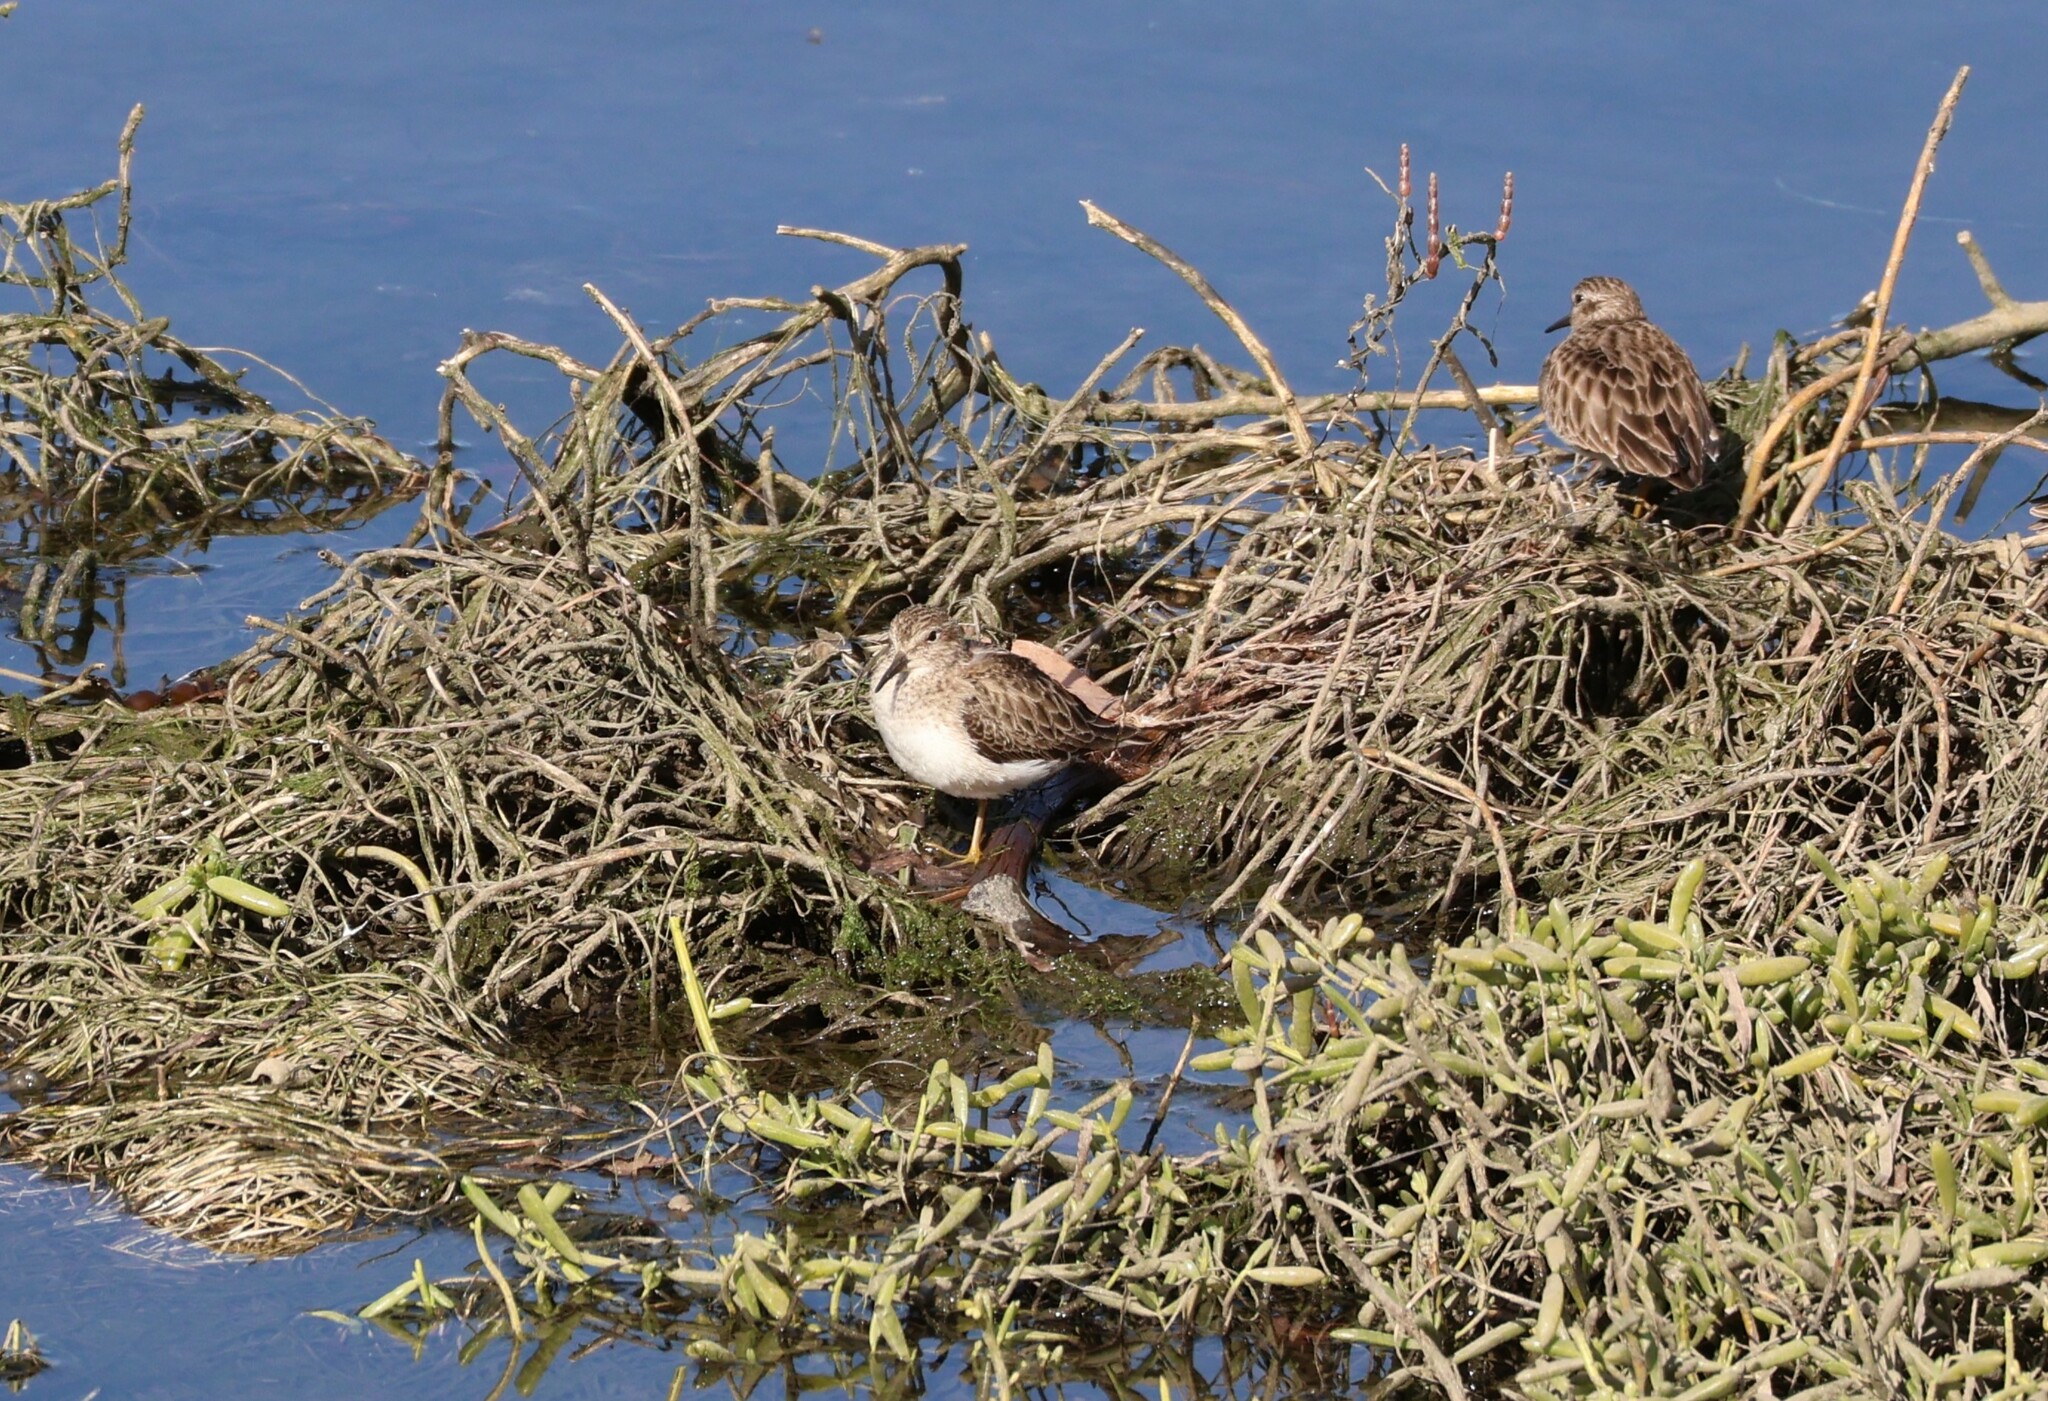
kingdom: Animalia
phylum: Chordata
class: Aves
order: Charadriiformes
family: Scolopacidae
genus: Calidris
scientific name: Calidris minutilla
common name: Least sandpiper
